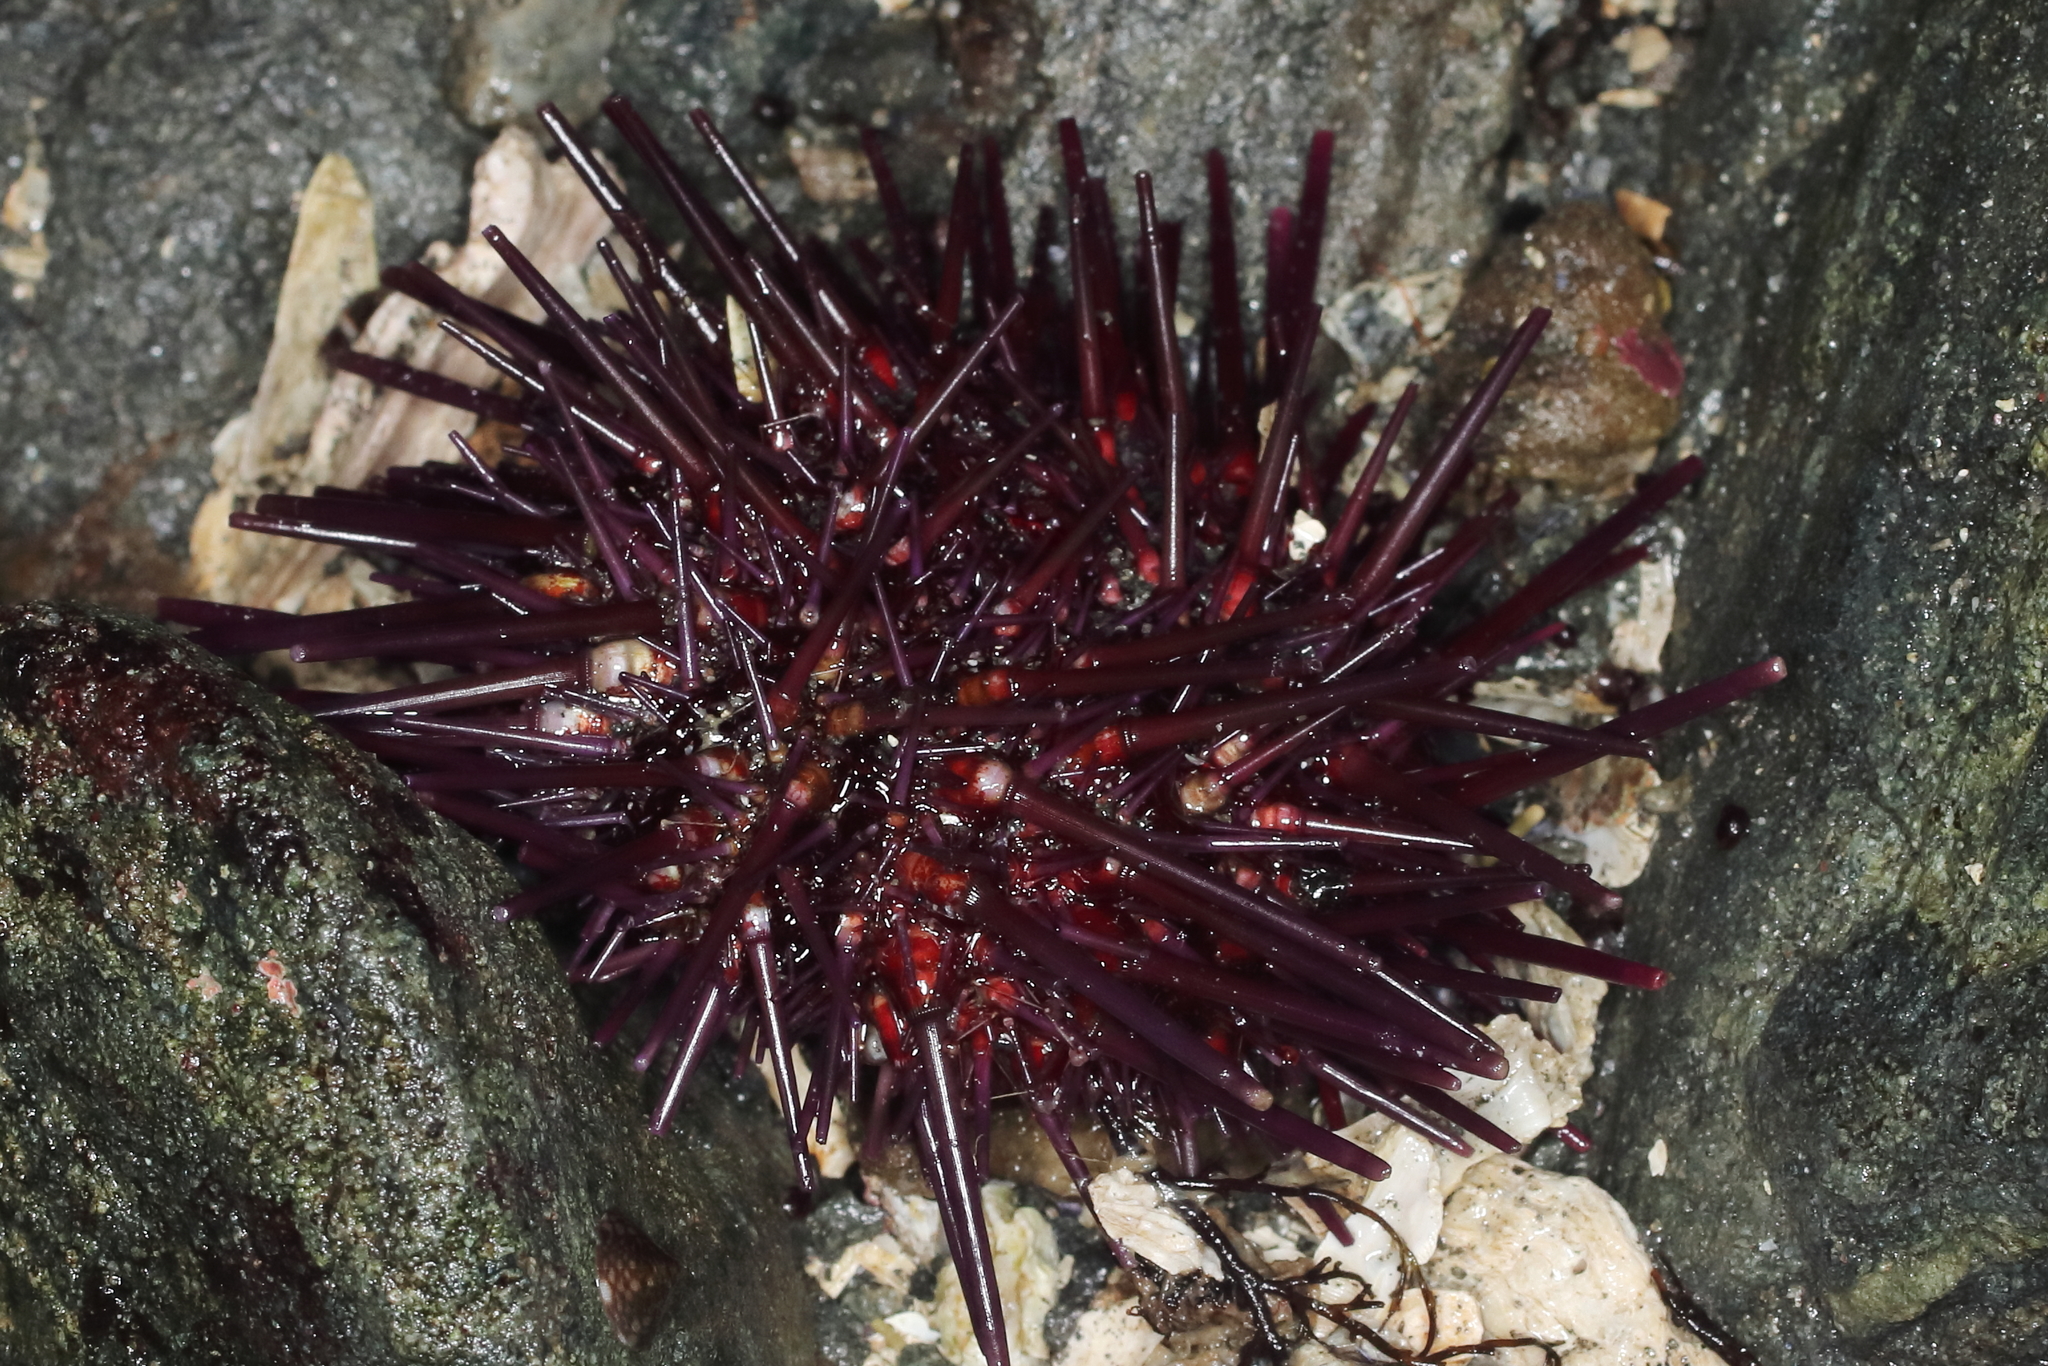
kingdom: Animalia
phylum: Echinodermata
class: Echinoidea
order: Camarodonta
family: Strongylocentrotidae
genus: Mesocentrotus
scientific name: Mesocentrotus franciscanus
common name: Red sea urchin
